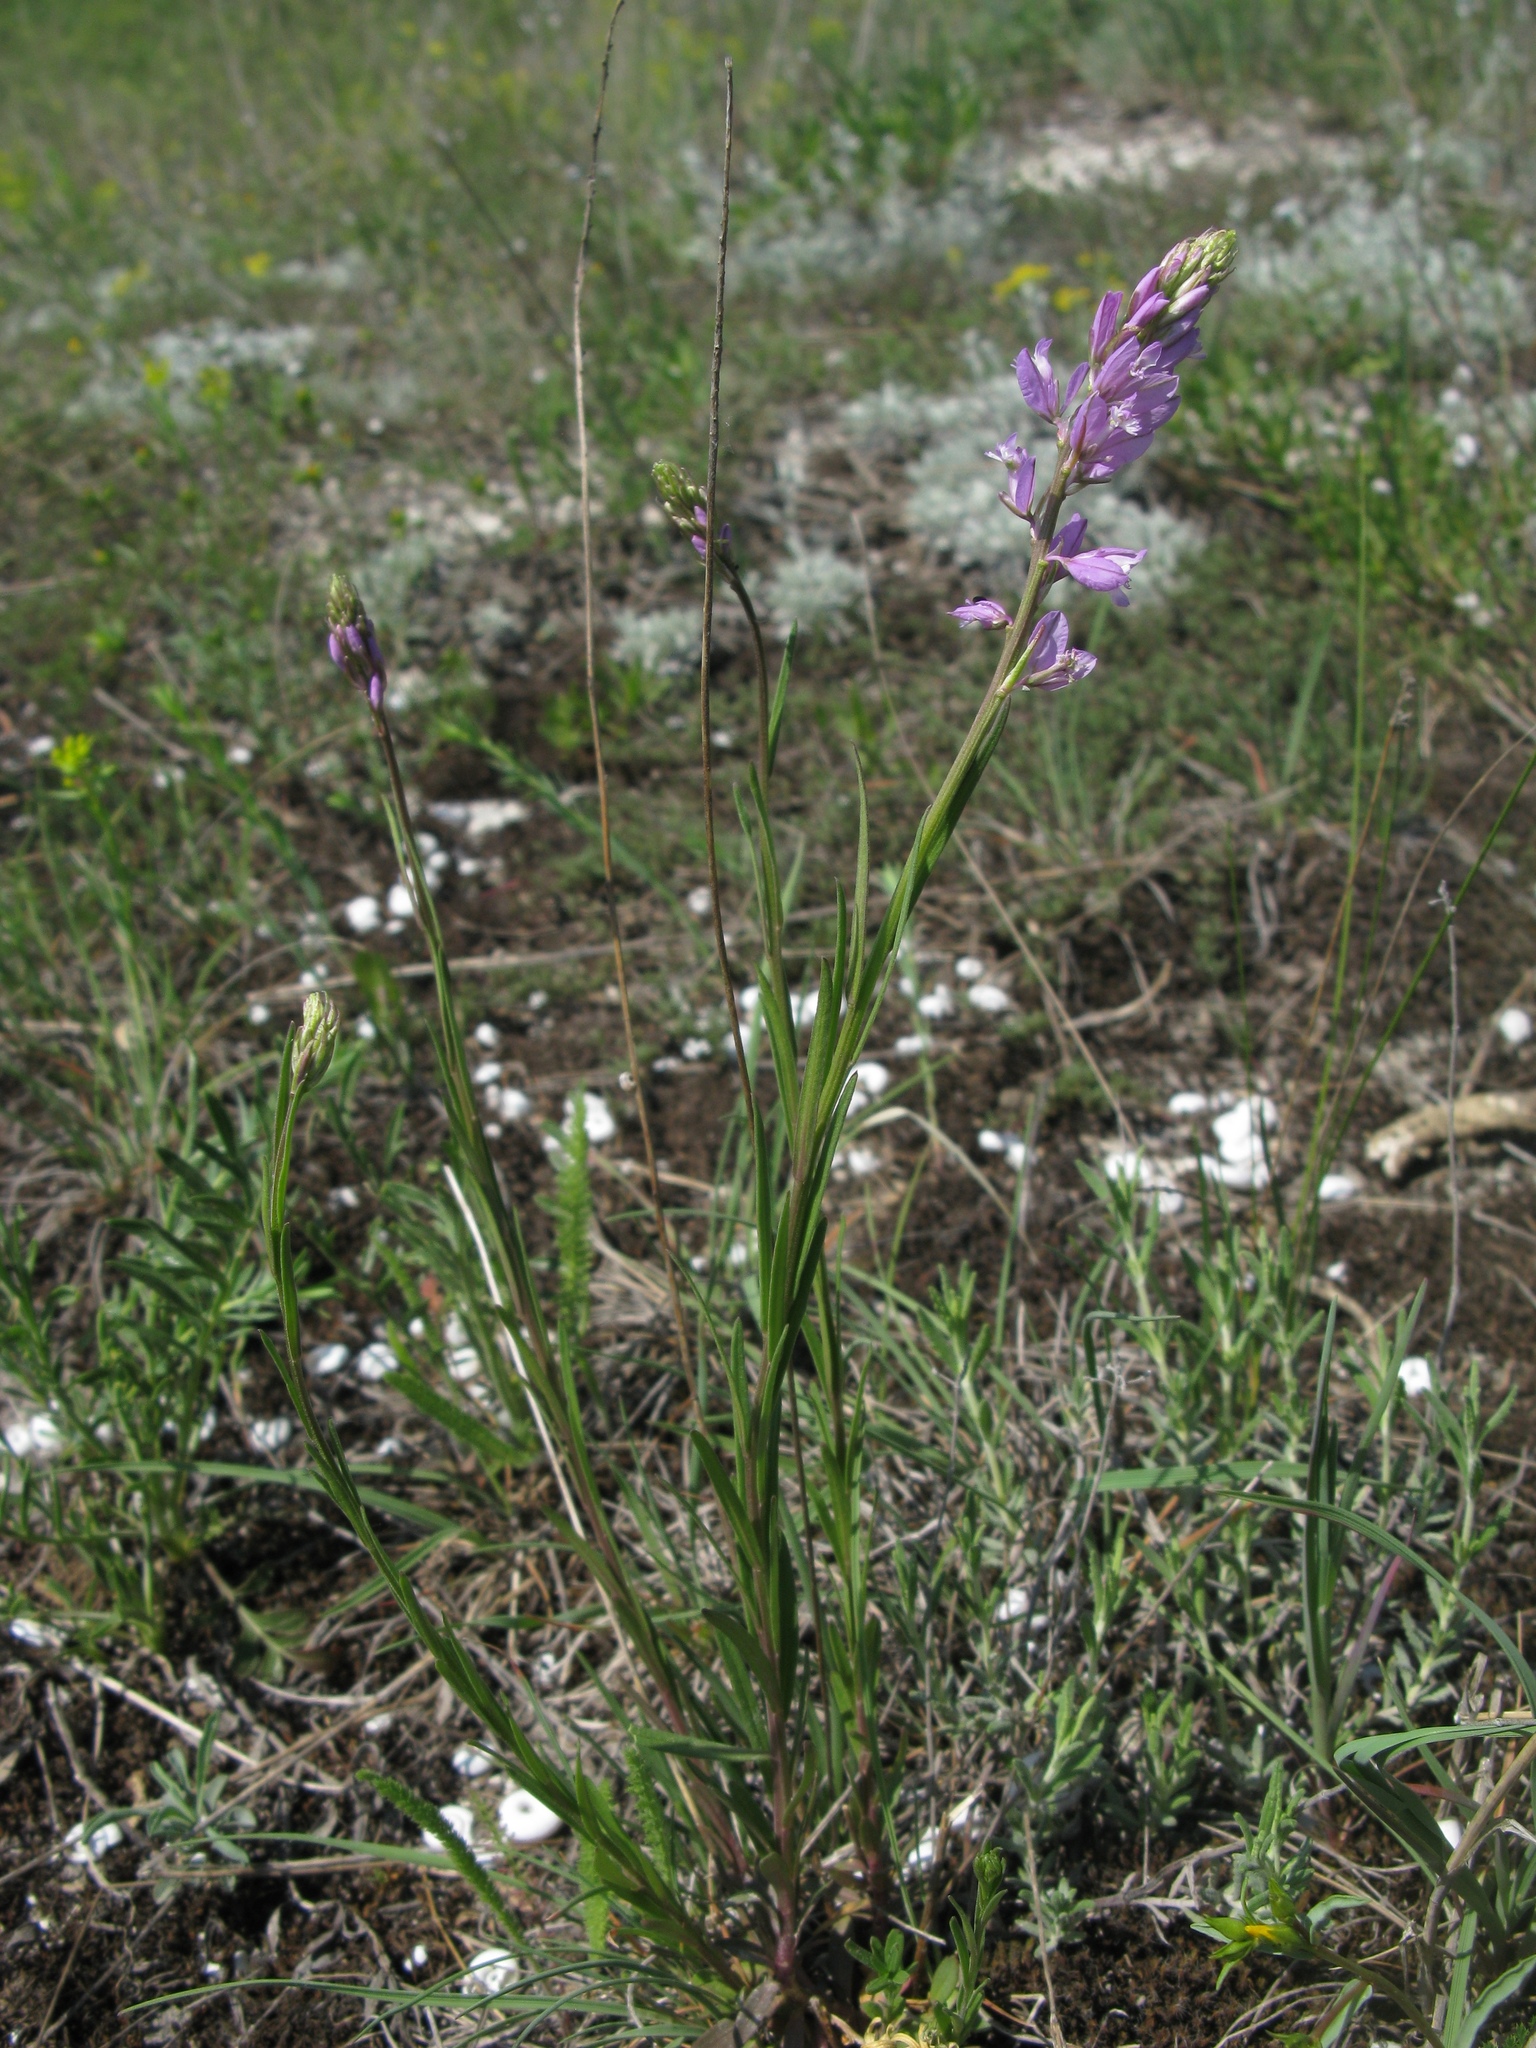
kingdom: Plantae
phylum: Tracheophyta
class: Magnoliopsida
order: Fabales
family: Polygalaceae
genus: Polygala
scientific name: Polygala nicaeensis
